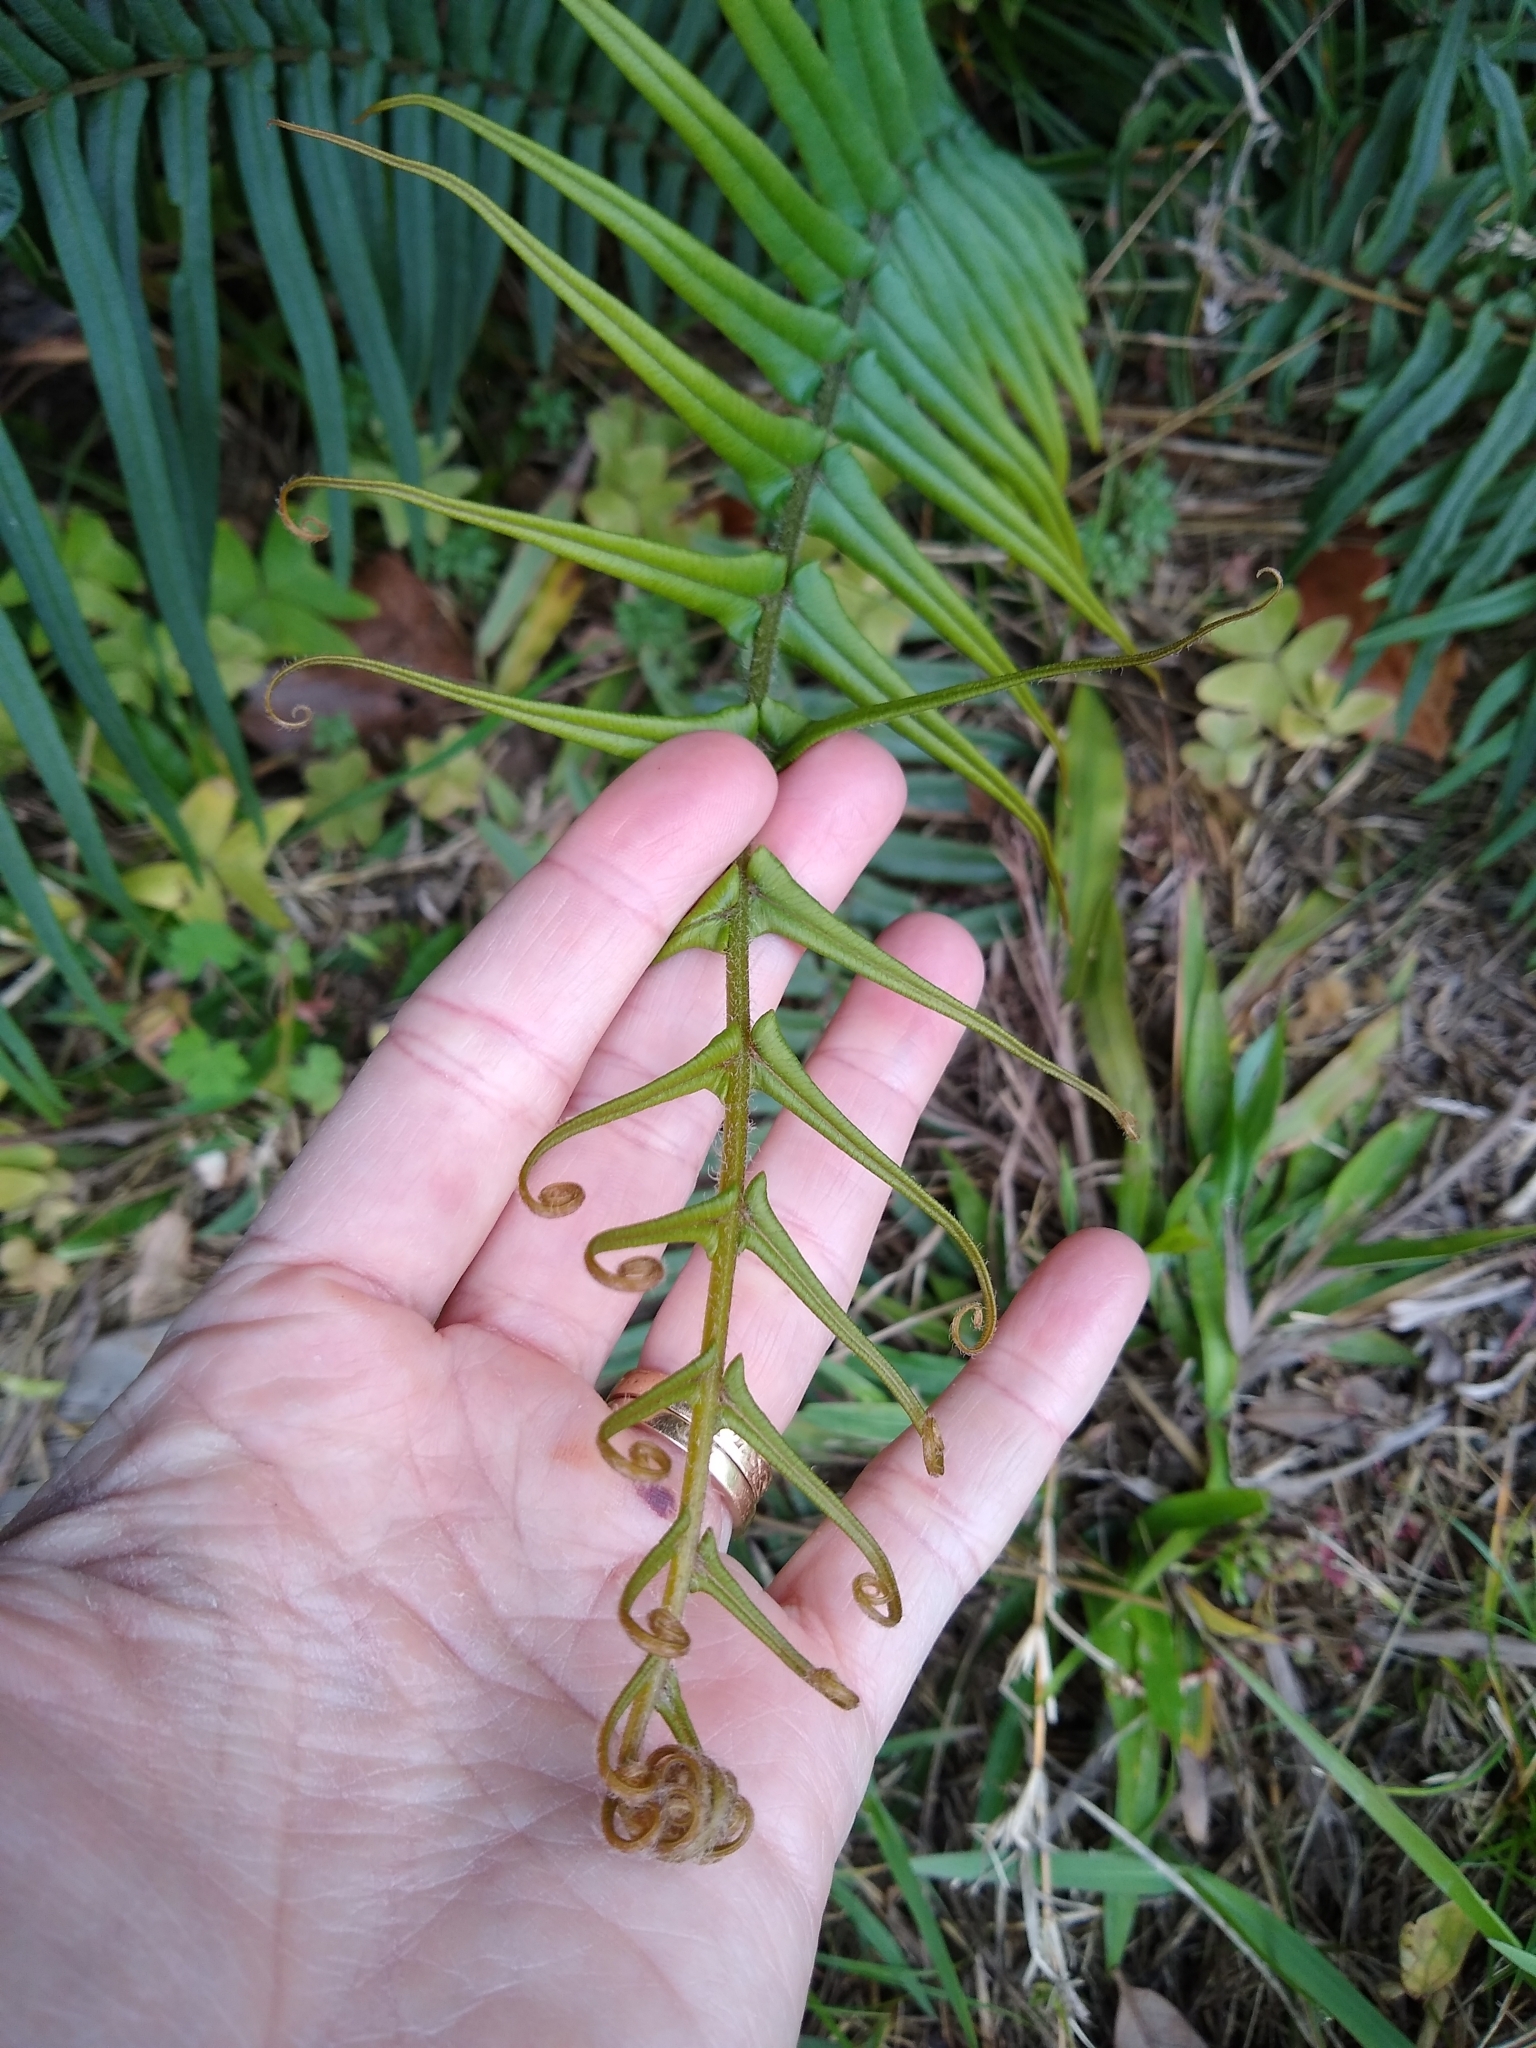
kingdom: Plantae
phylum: Tracheophyta
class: Polypodiopsida
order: Polypodiales
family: Pteridaceae
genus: Pteris
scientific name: Pteris vittata
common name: Ladder brake
